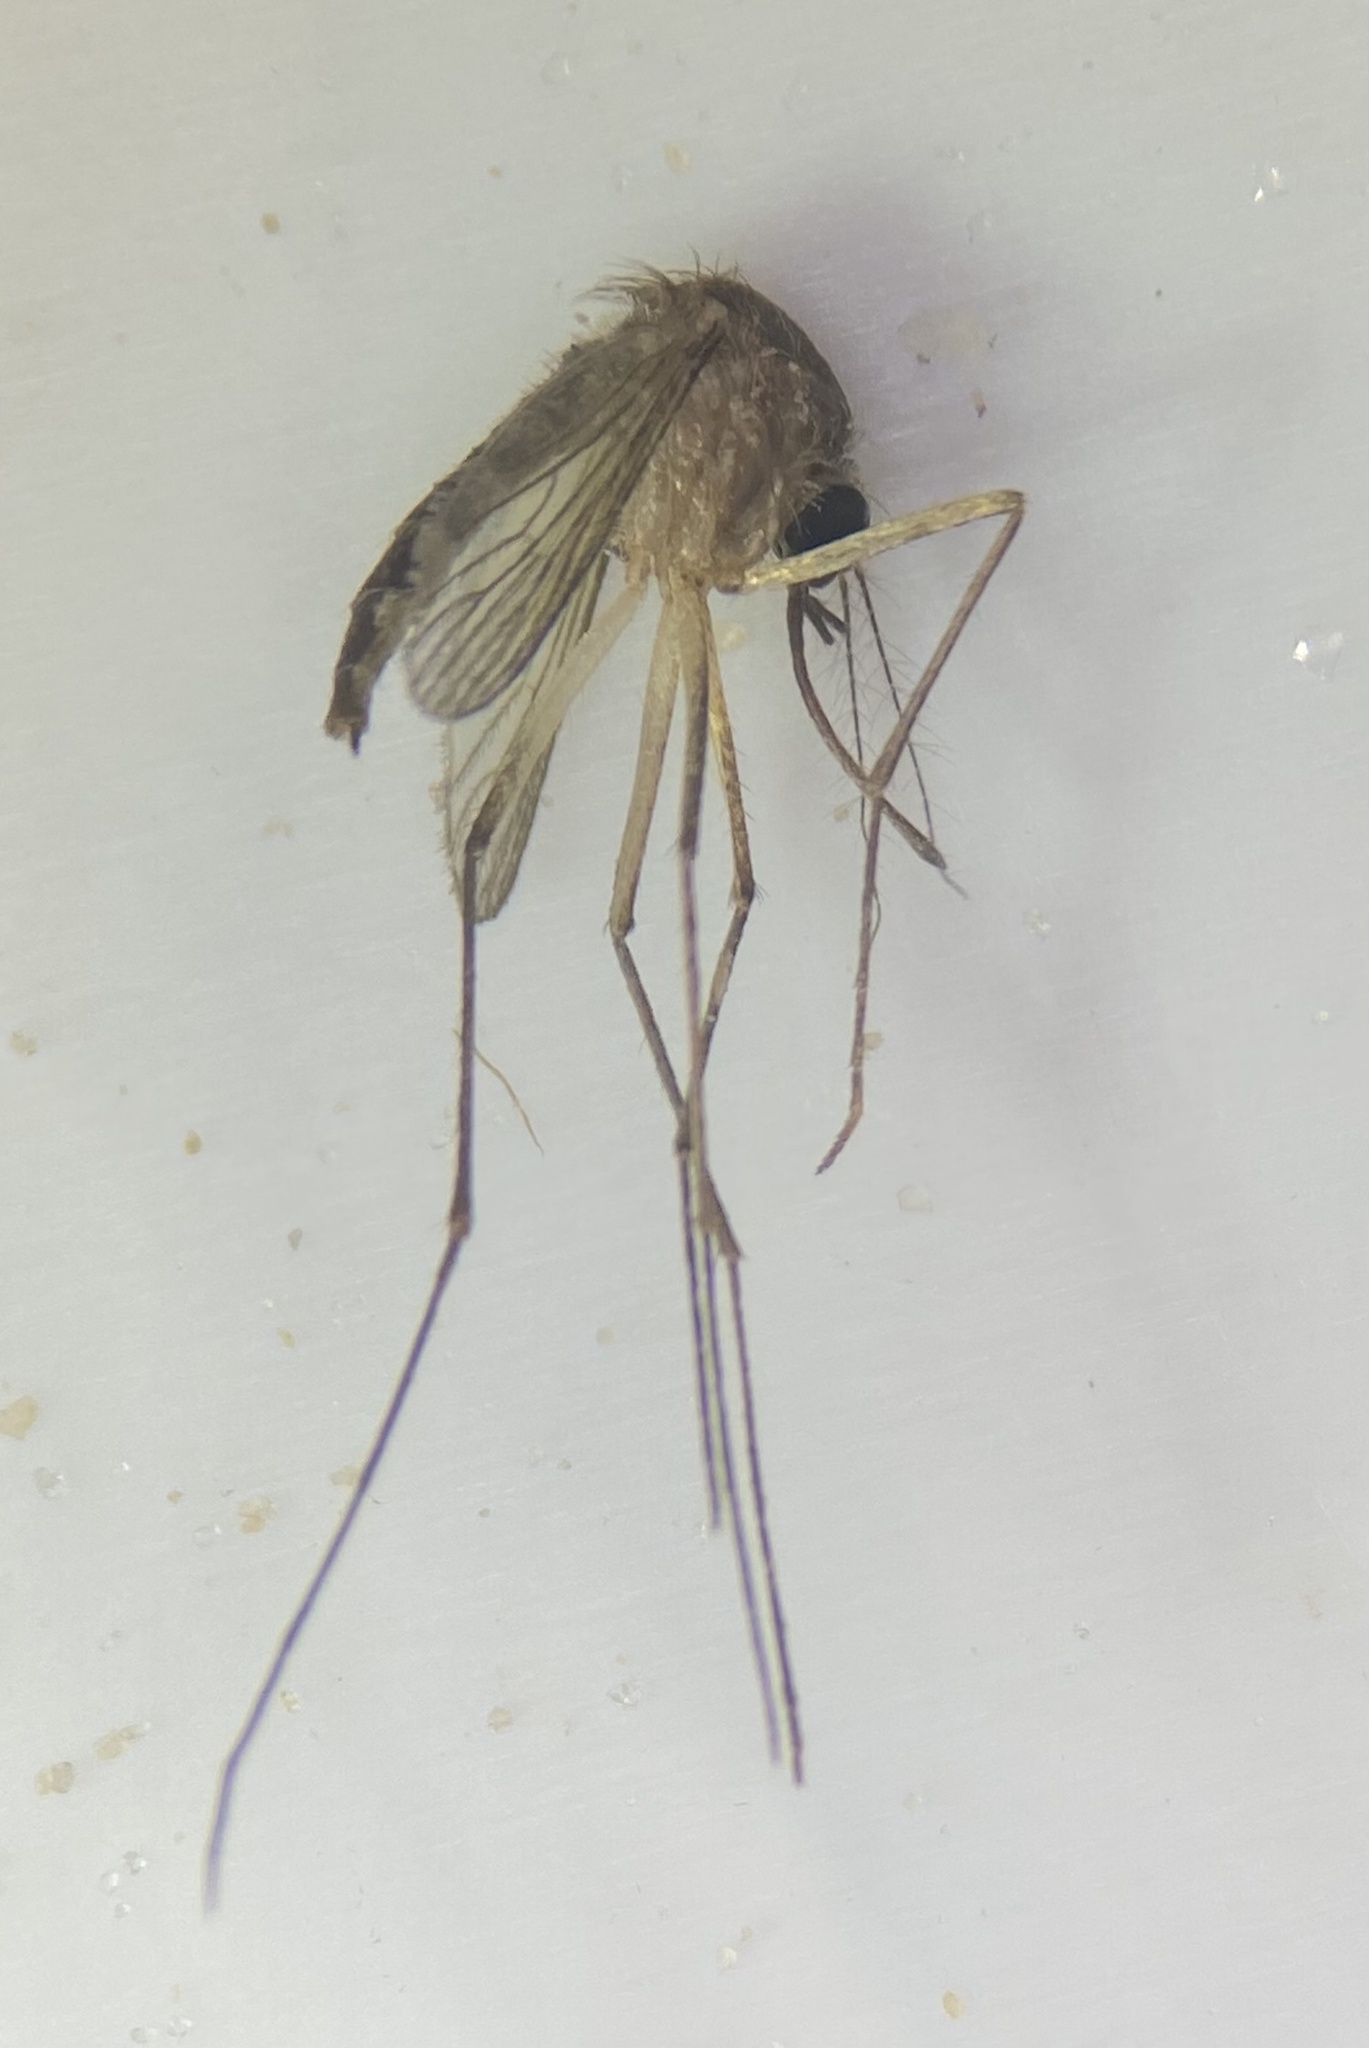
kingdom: Animalia
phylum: Arthropoda
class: Insecta
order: Diptera
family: Culicidae
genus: Aedes
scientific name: Aedes tormentor
